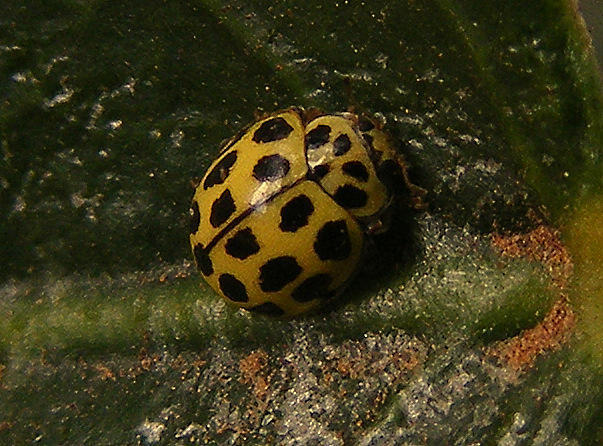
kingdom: Animalia
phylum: Arthropoda
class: Insecta
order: Coleoptera
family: Coccinellidae
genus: Psyllobora
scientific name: Psyllobora variegata
